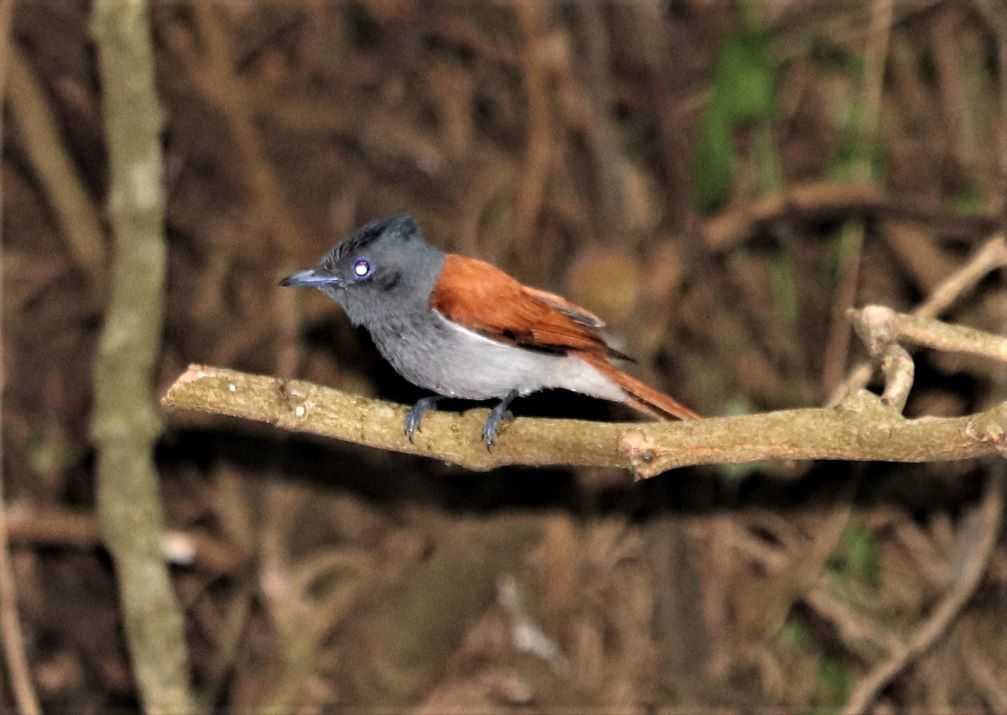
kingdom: Animalia
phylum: Chordata
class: Aves
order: Passeriformes
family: Monarchidae
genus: Terpsiphone
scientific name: Terpsiphone viridis
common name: African paradise flycatcher
